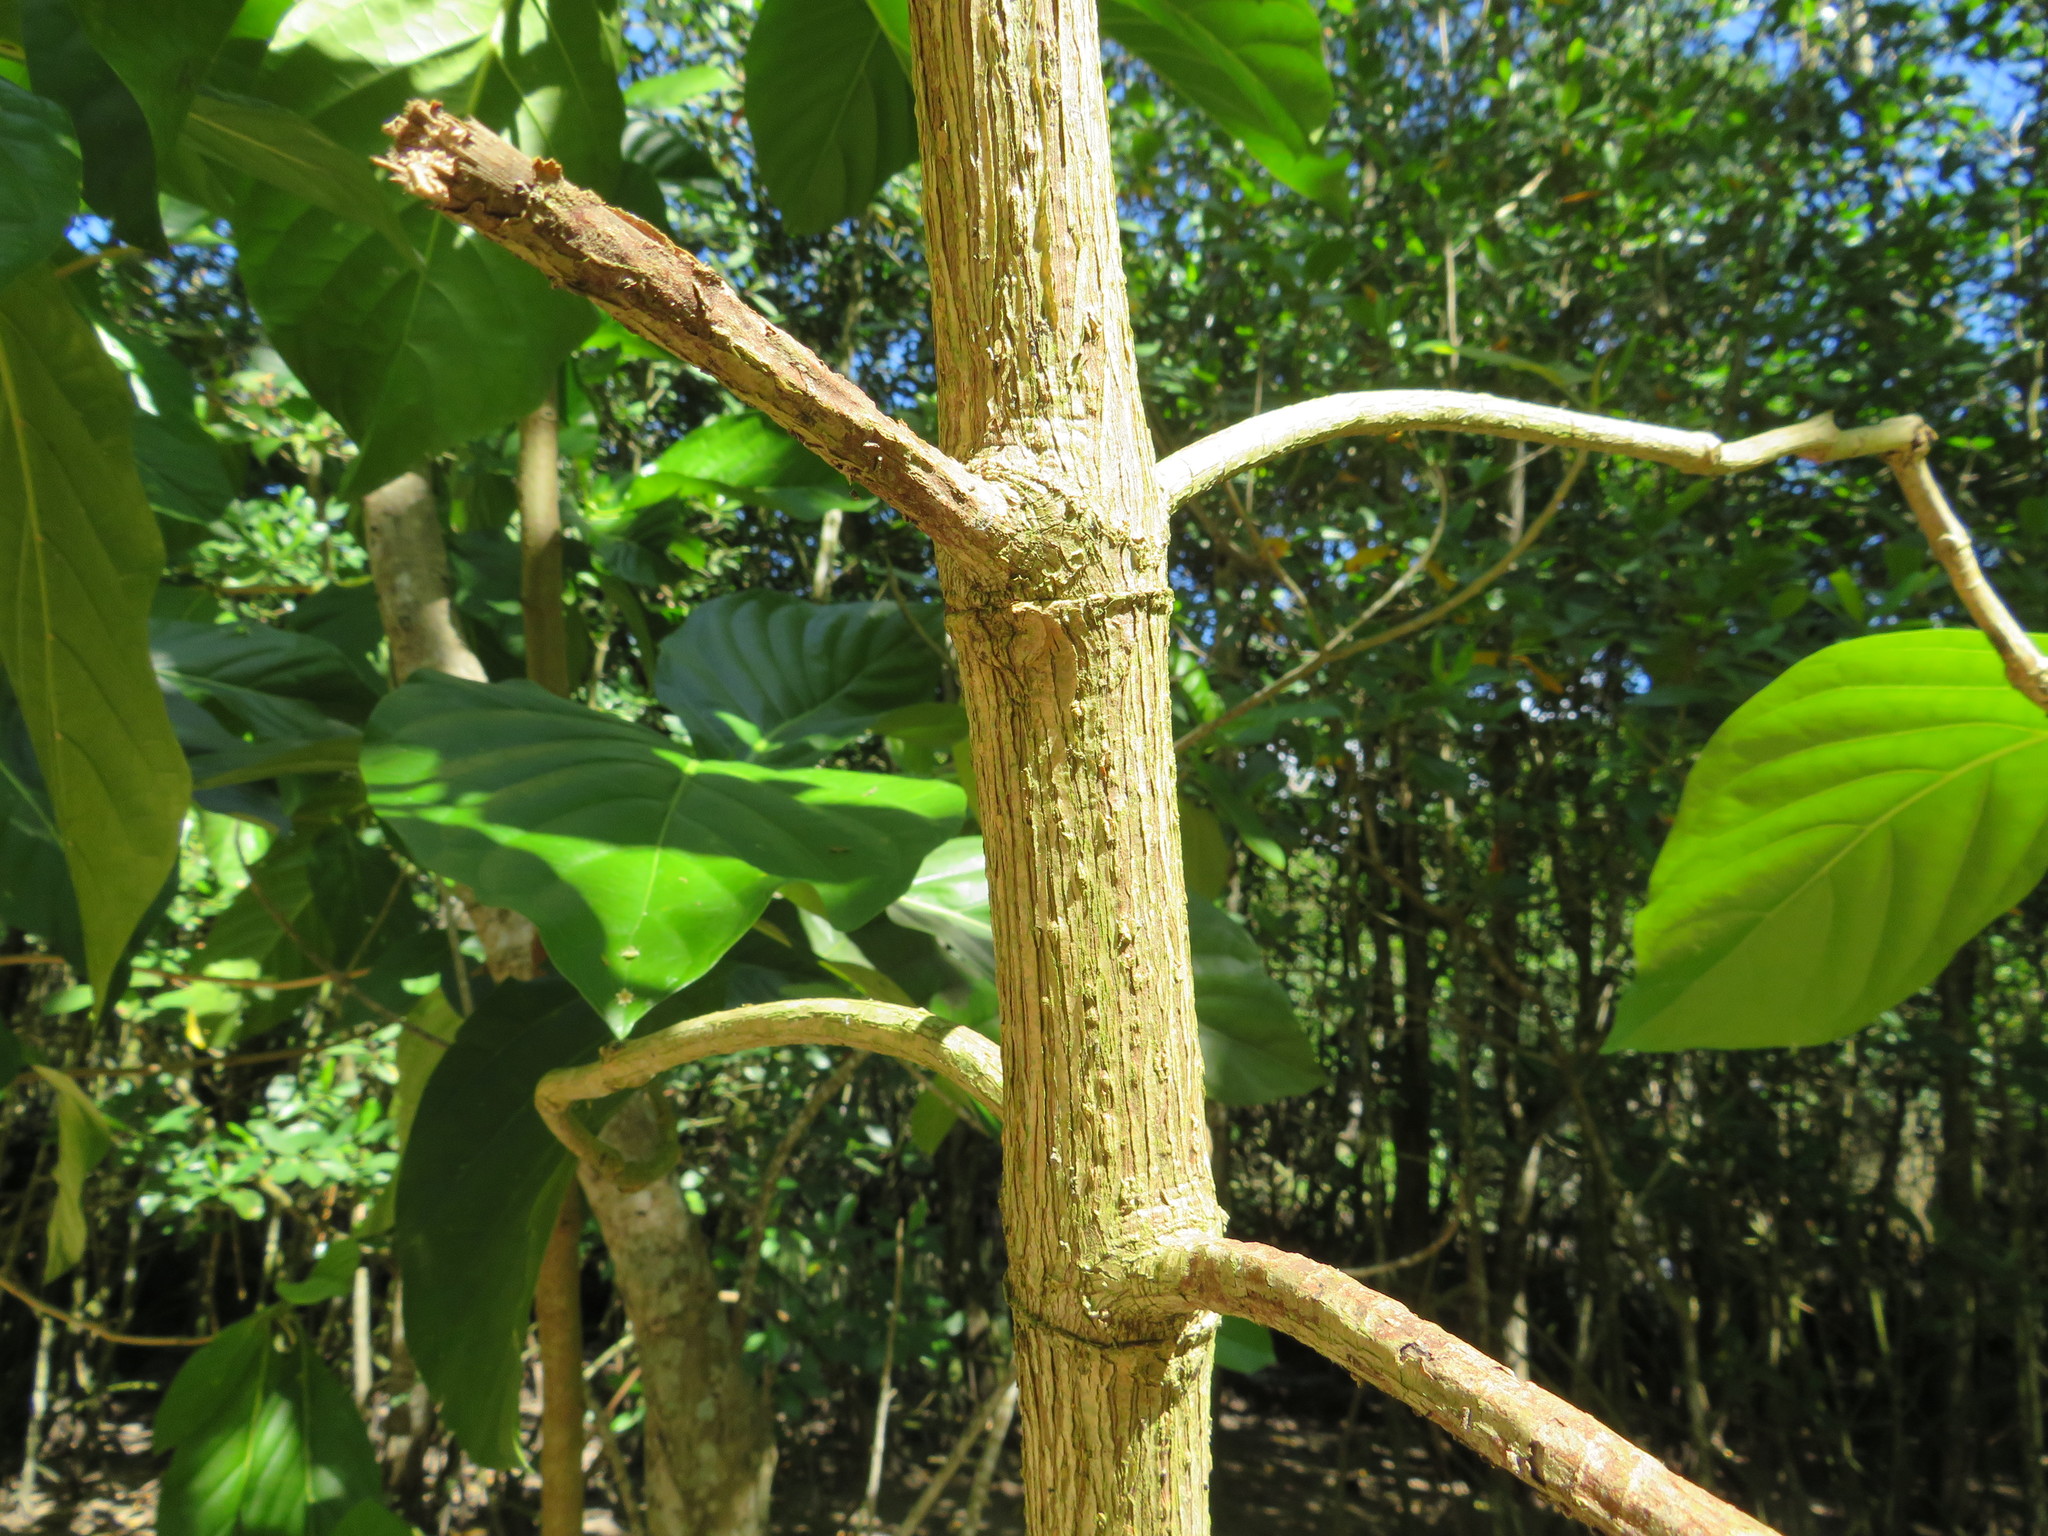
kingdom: Plantae
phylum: Tracheophyta
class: Magnoliopsida
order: Gentianales
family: Rubiaceae
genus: Morinda
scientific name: Morinda citrifolia
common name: Indian-mulberry
